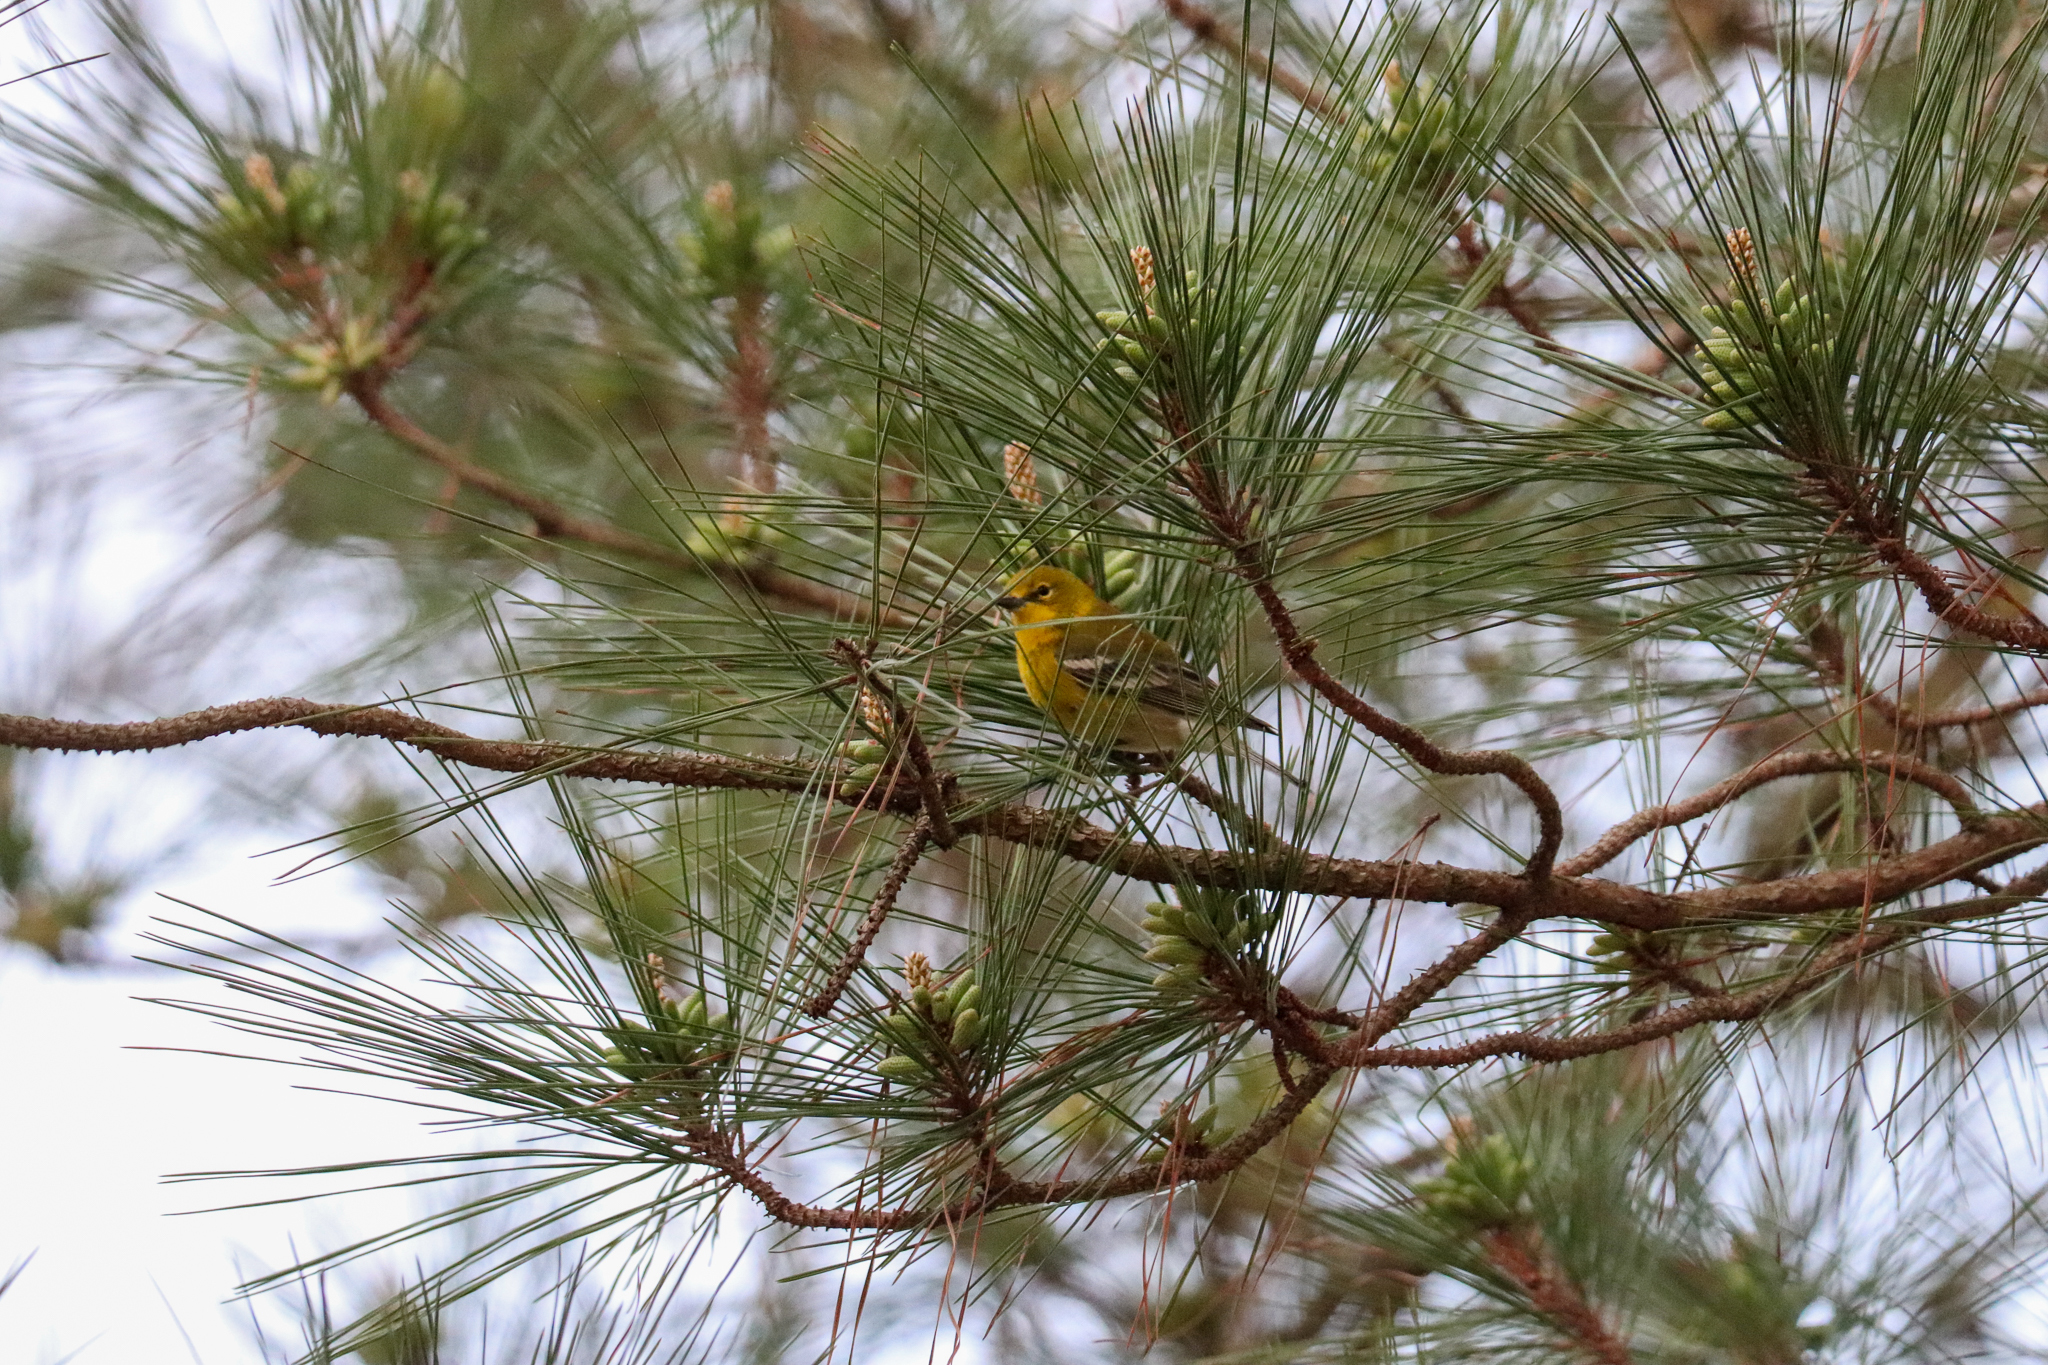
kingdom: Animalia
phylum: Chordata
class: Aves
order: Passeriformes
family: Parulidae
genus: Setophaga
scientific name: Setophaga pinus
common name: Pine warbler
